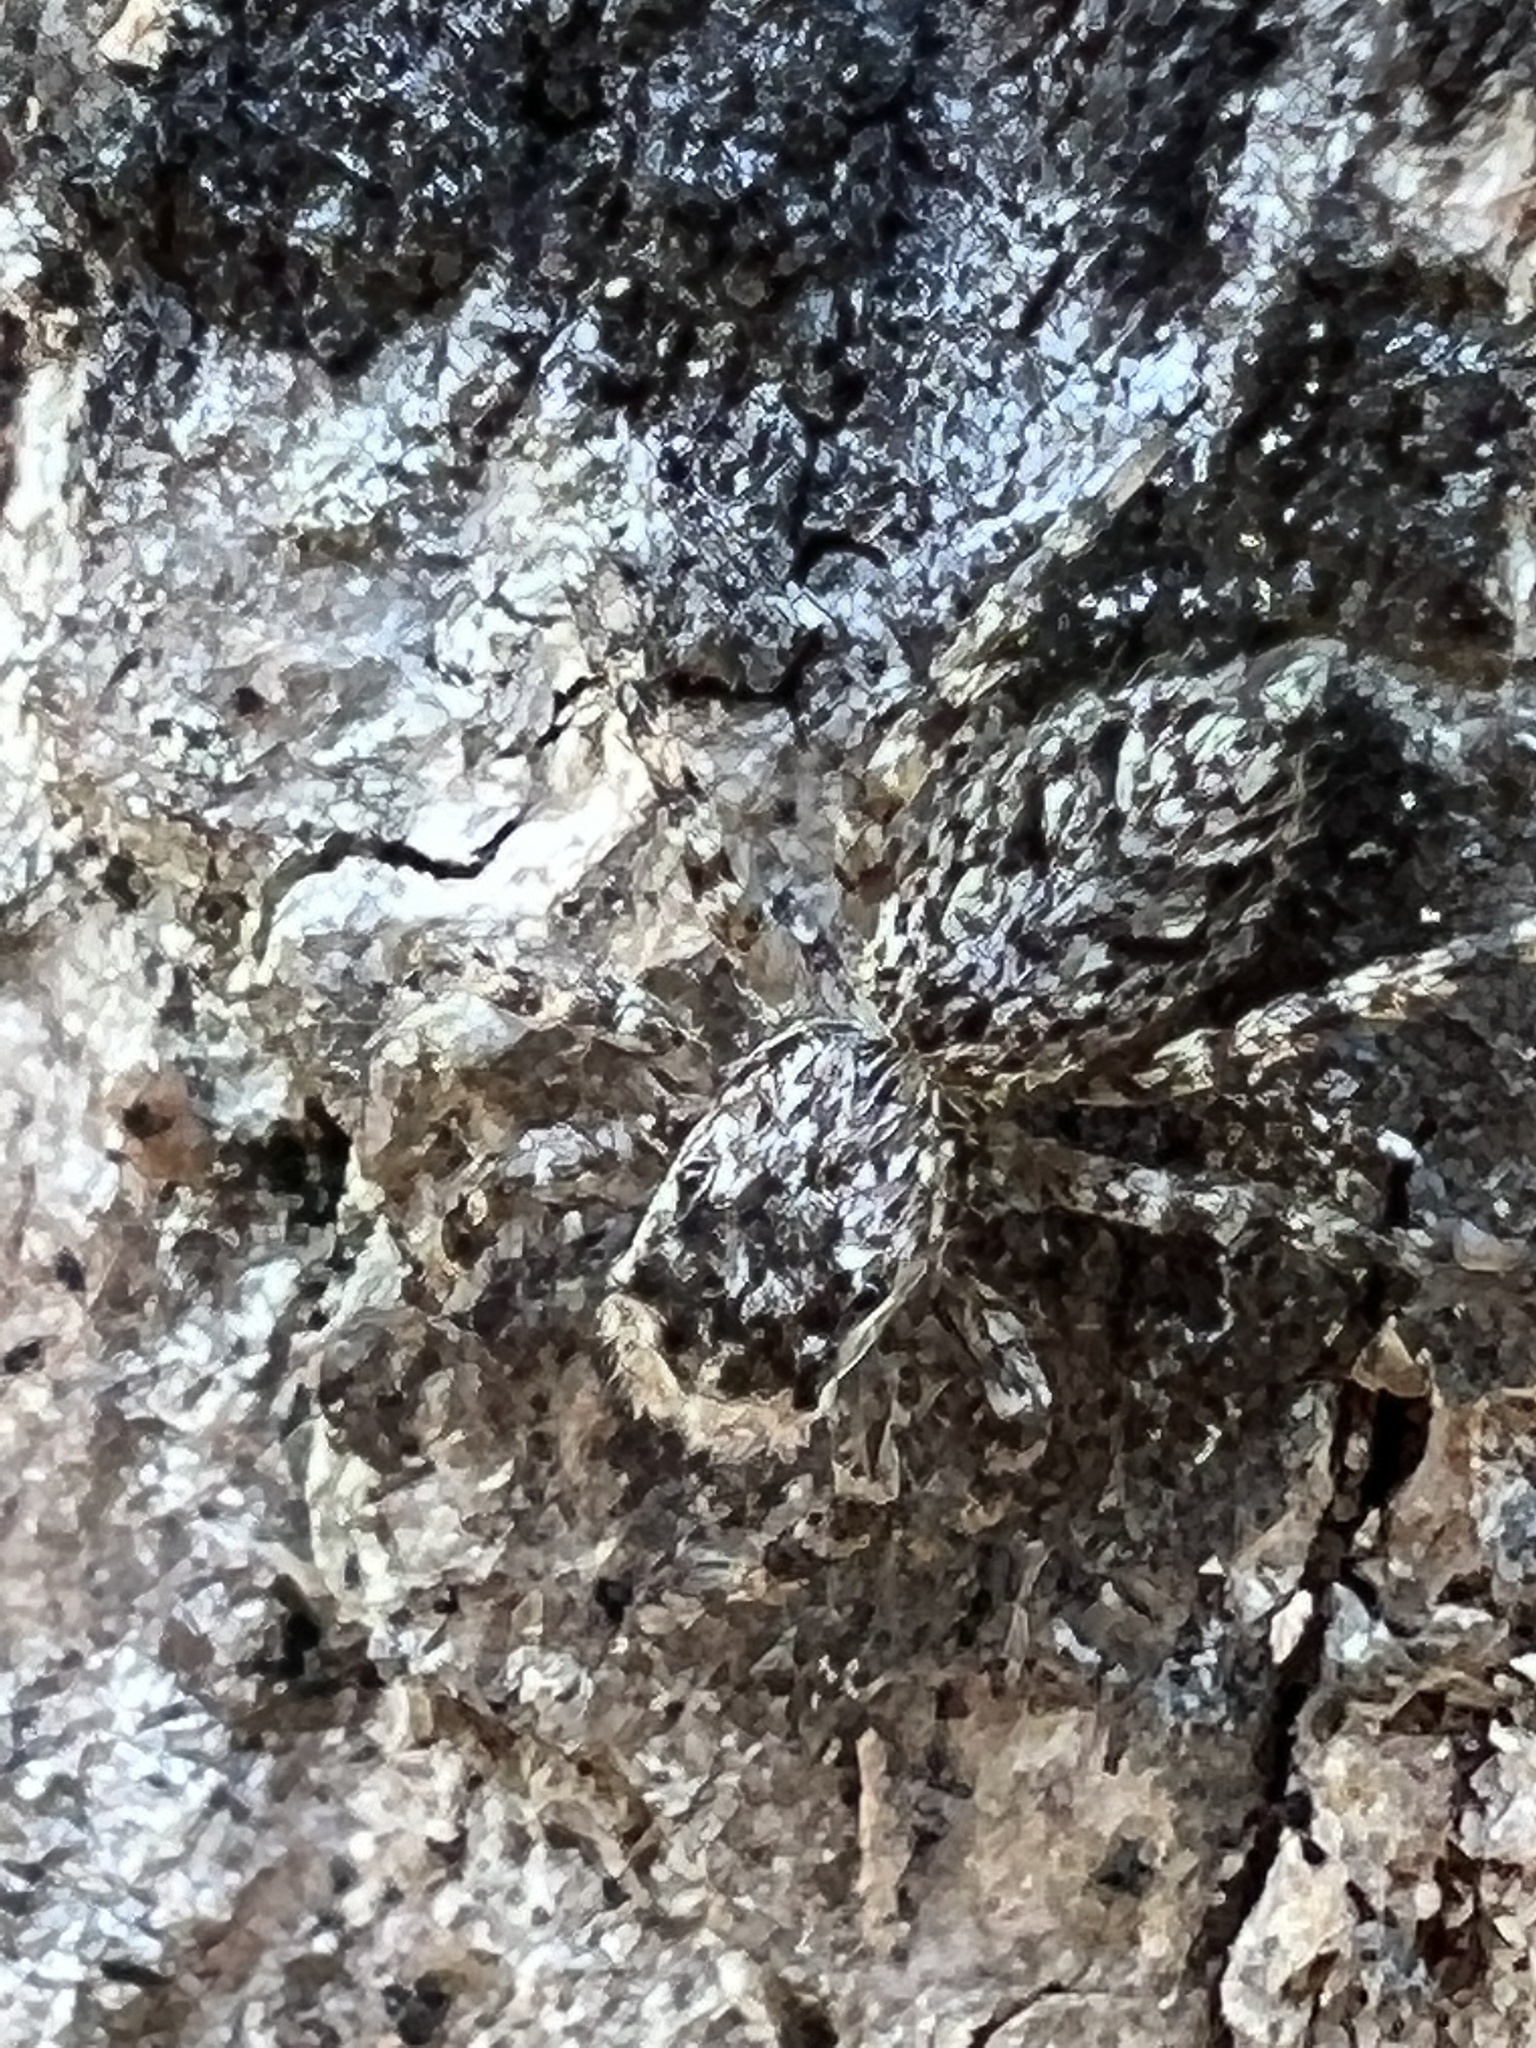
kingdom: Animalia
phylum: Arthropoda
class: Arachnida
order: Araneae
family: Salticidae
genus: Platycryptus
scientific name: Platycryptus undatus
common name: Tan jumping spider
